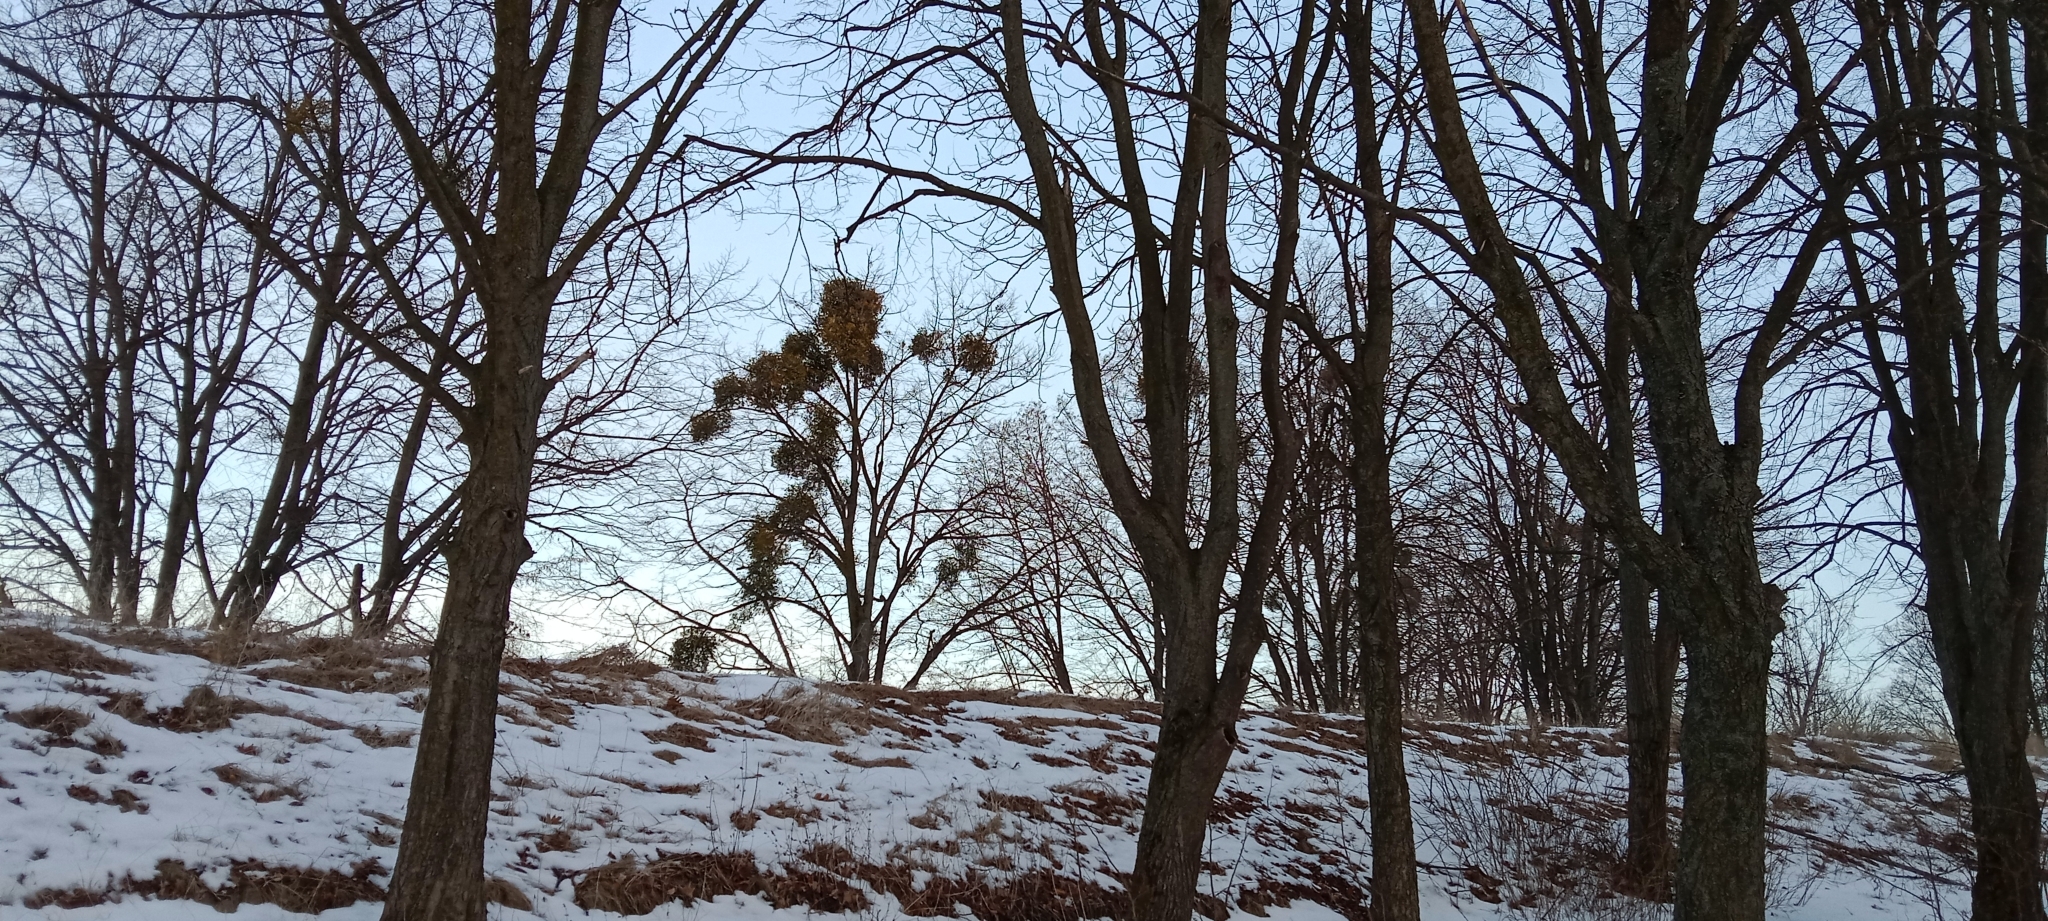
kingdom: Plantae
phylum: Tracheophyta
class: Magnoliopsida
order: Santalales
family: Viscaceae
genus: Viscum
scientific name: Viscum album
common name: Mistletoe
